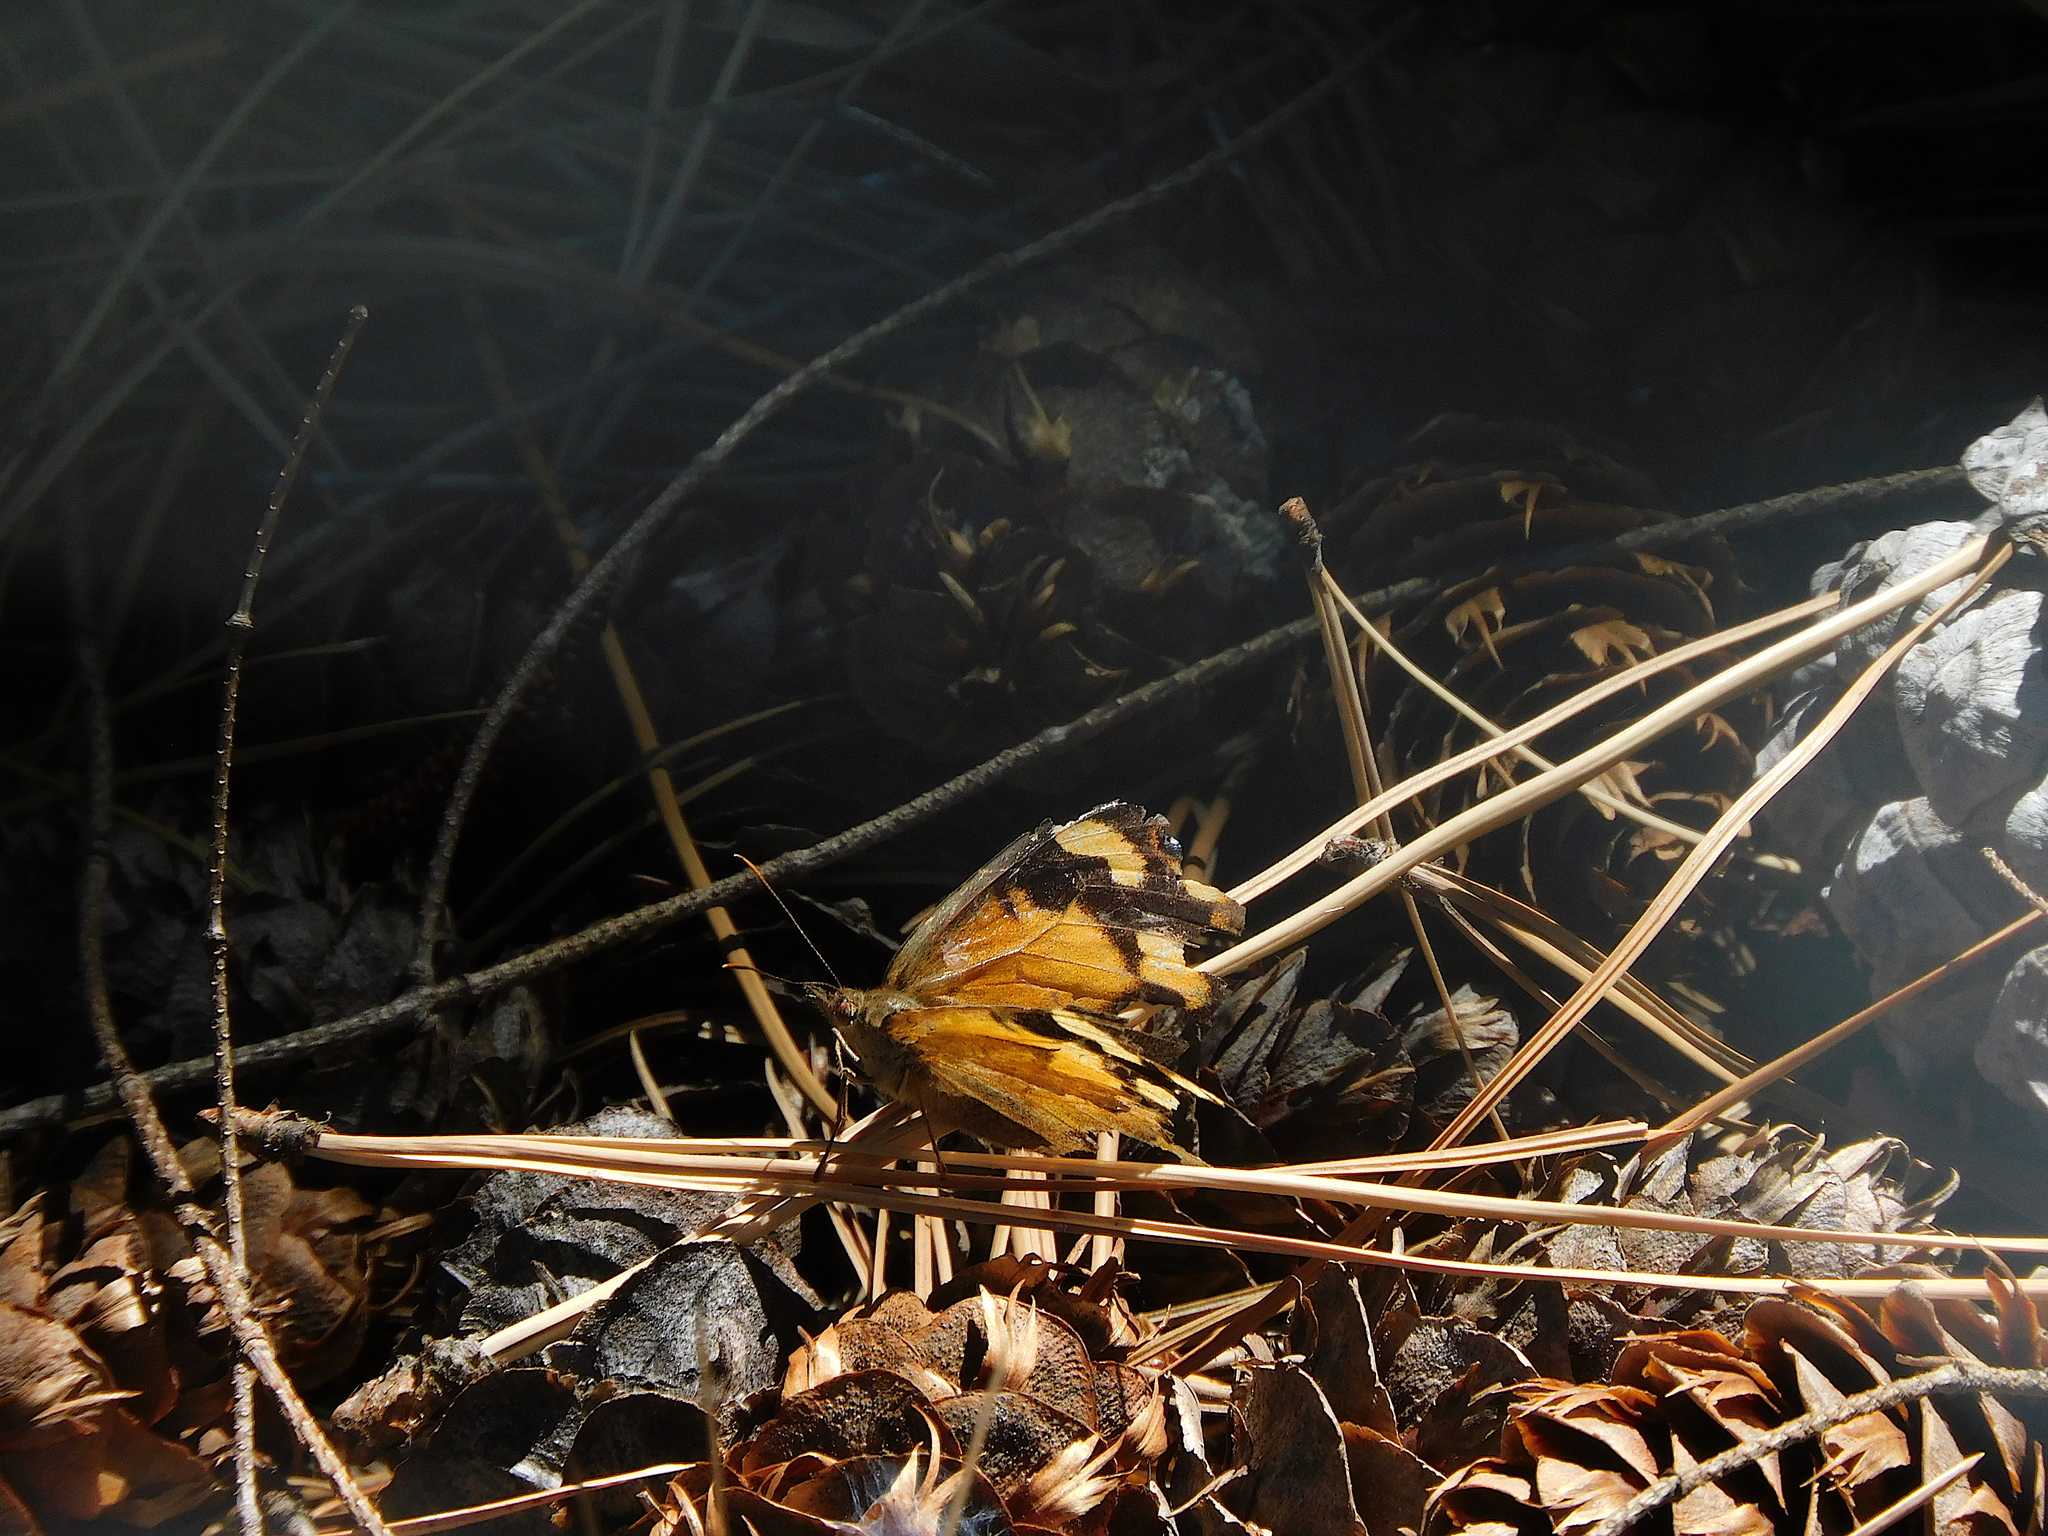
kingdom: Animalia
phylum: Arthropoda
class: Insecta
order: Lepidoptera
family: Nymphalidae
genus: Heteronympha
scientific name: Heteronympha merope
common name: Common brown
